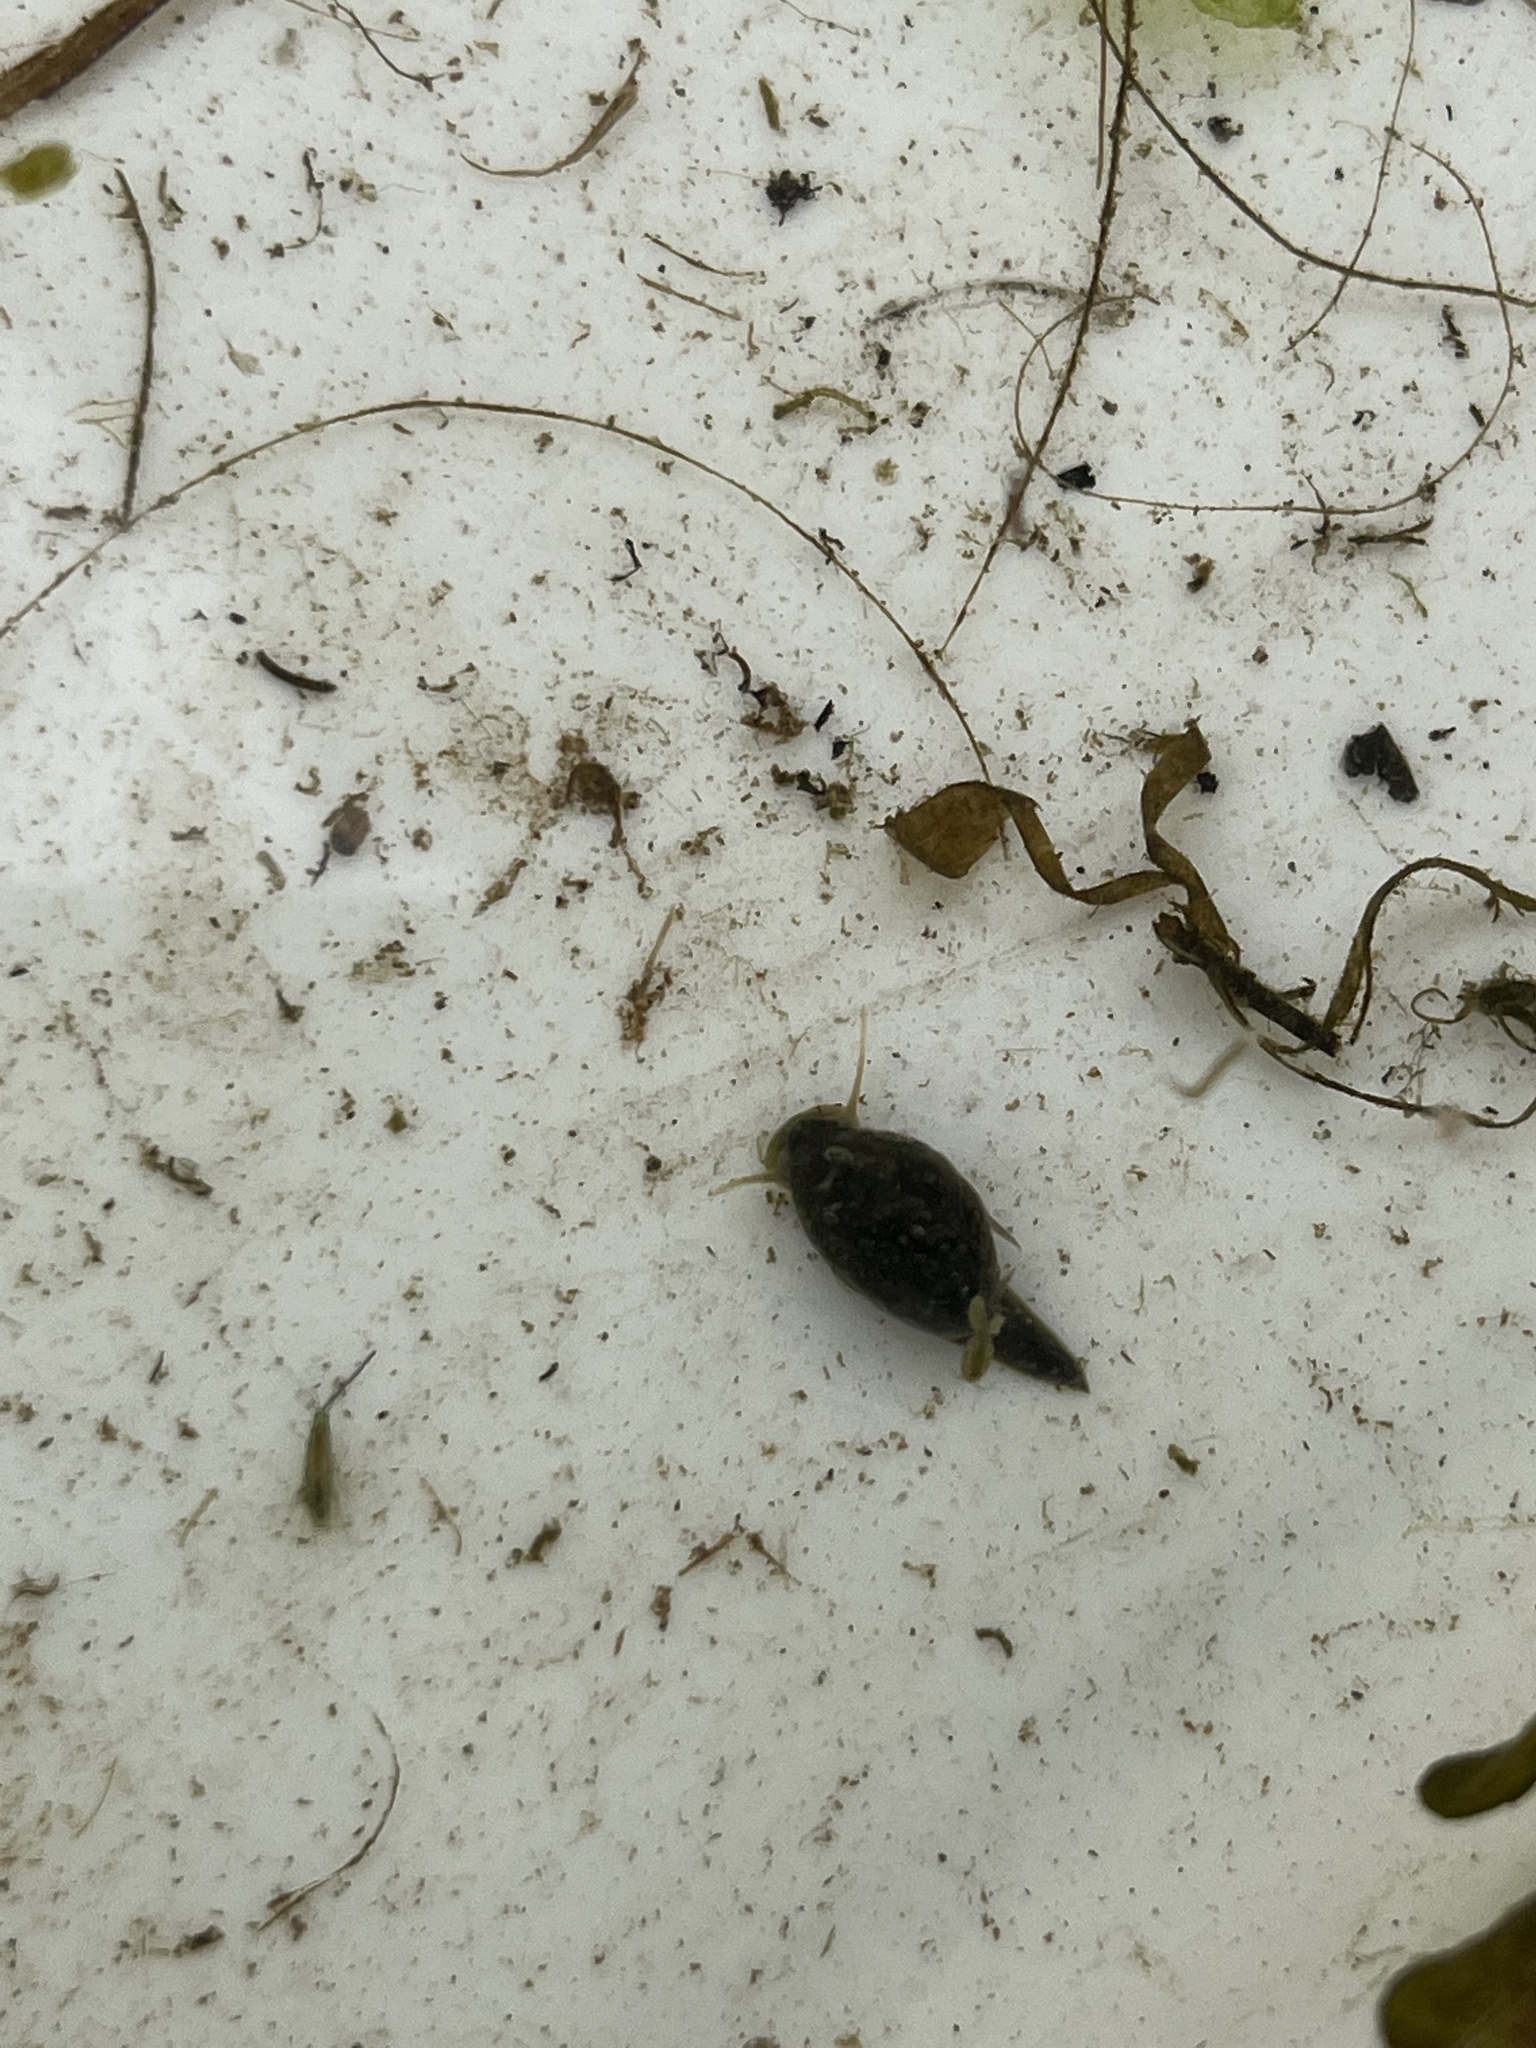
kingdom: Animalia
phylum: Mollusca
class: Gastropoda
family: Lymnaeidae
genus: Lymnaea
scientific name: Lymnaea stagnalis
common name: Great pond snail
